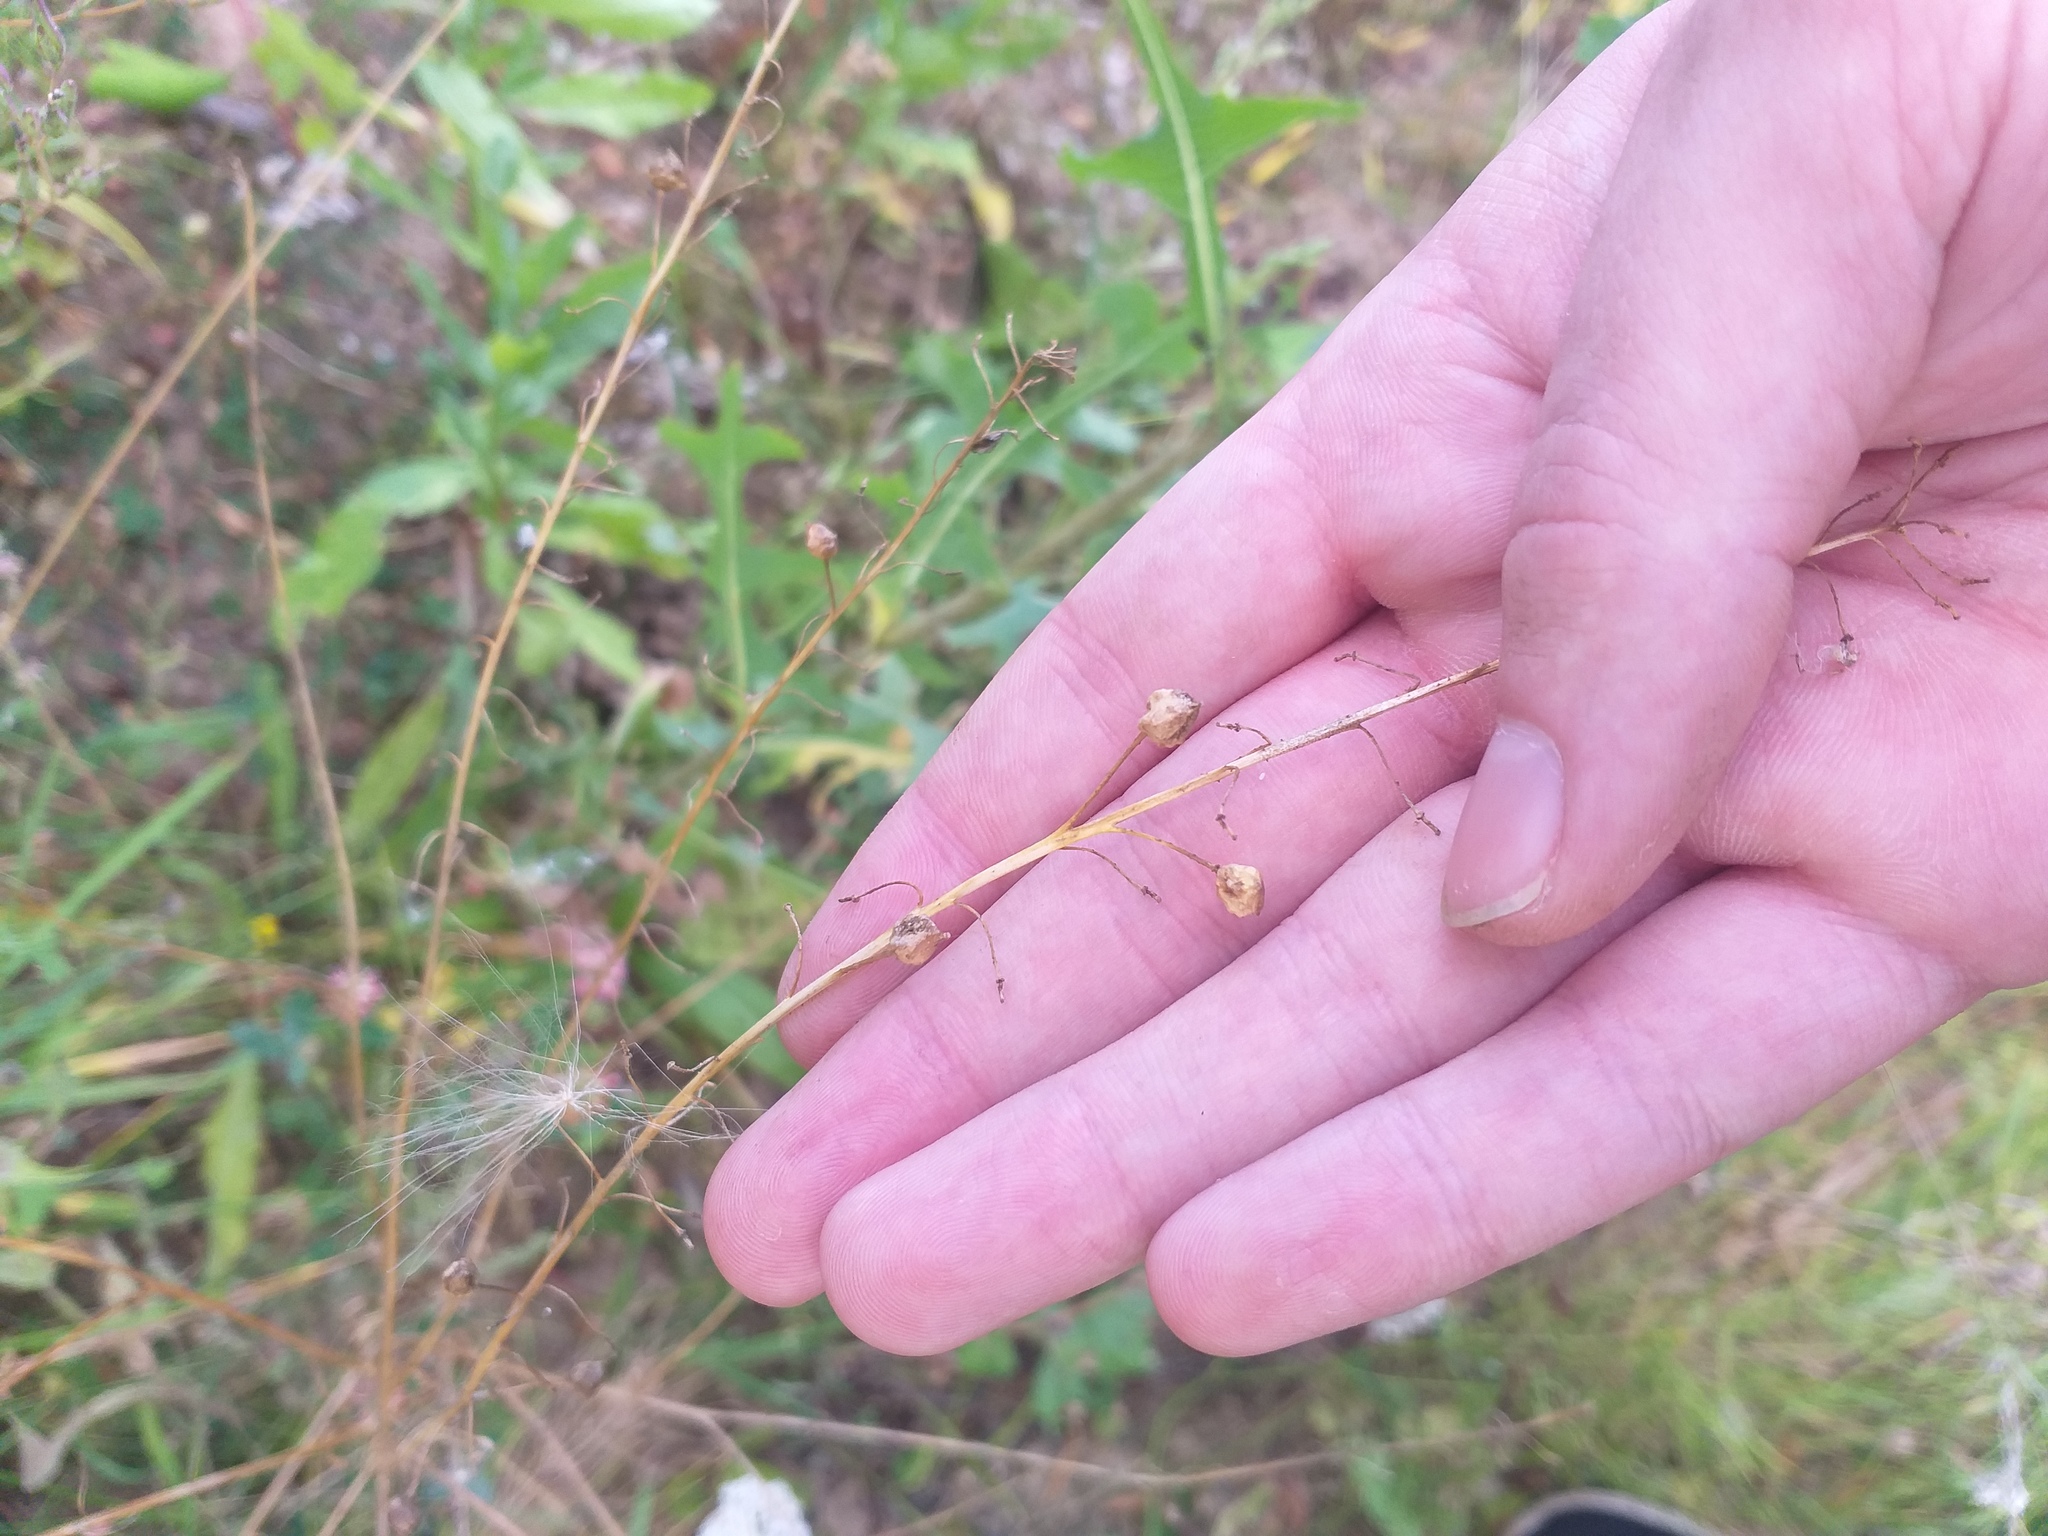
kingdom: Plantae
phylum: Tracheophyta
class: Magnoliopsida
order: Brassicales
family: Brassicaceae
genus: Bunias
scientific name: Bunias orientalis
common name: Warty-cabbage
